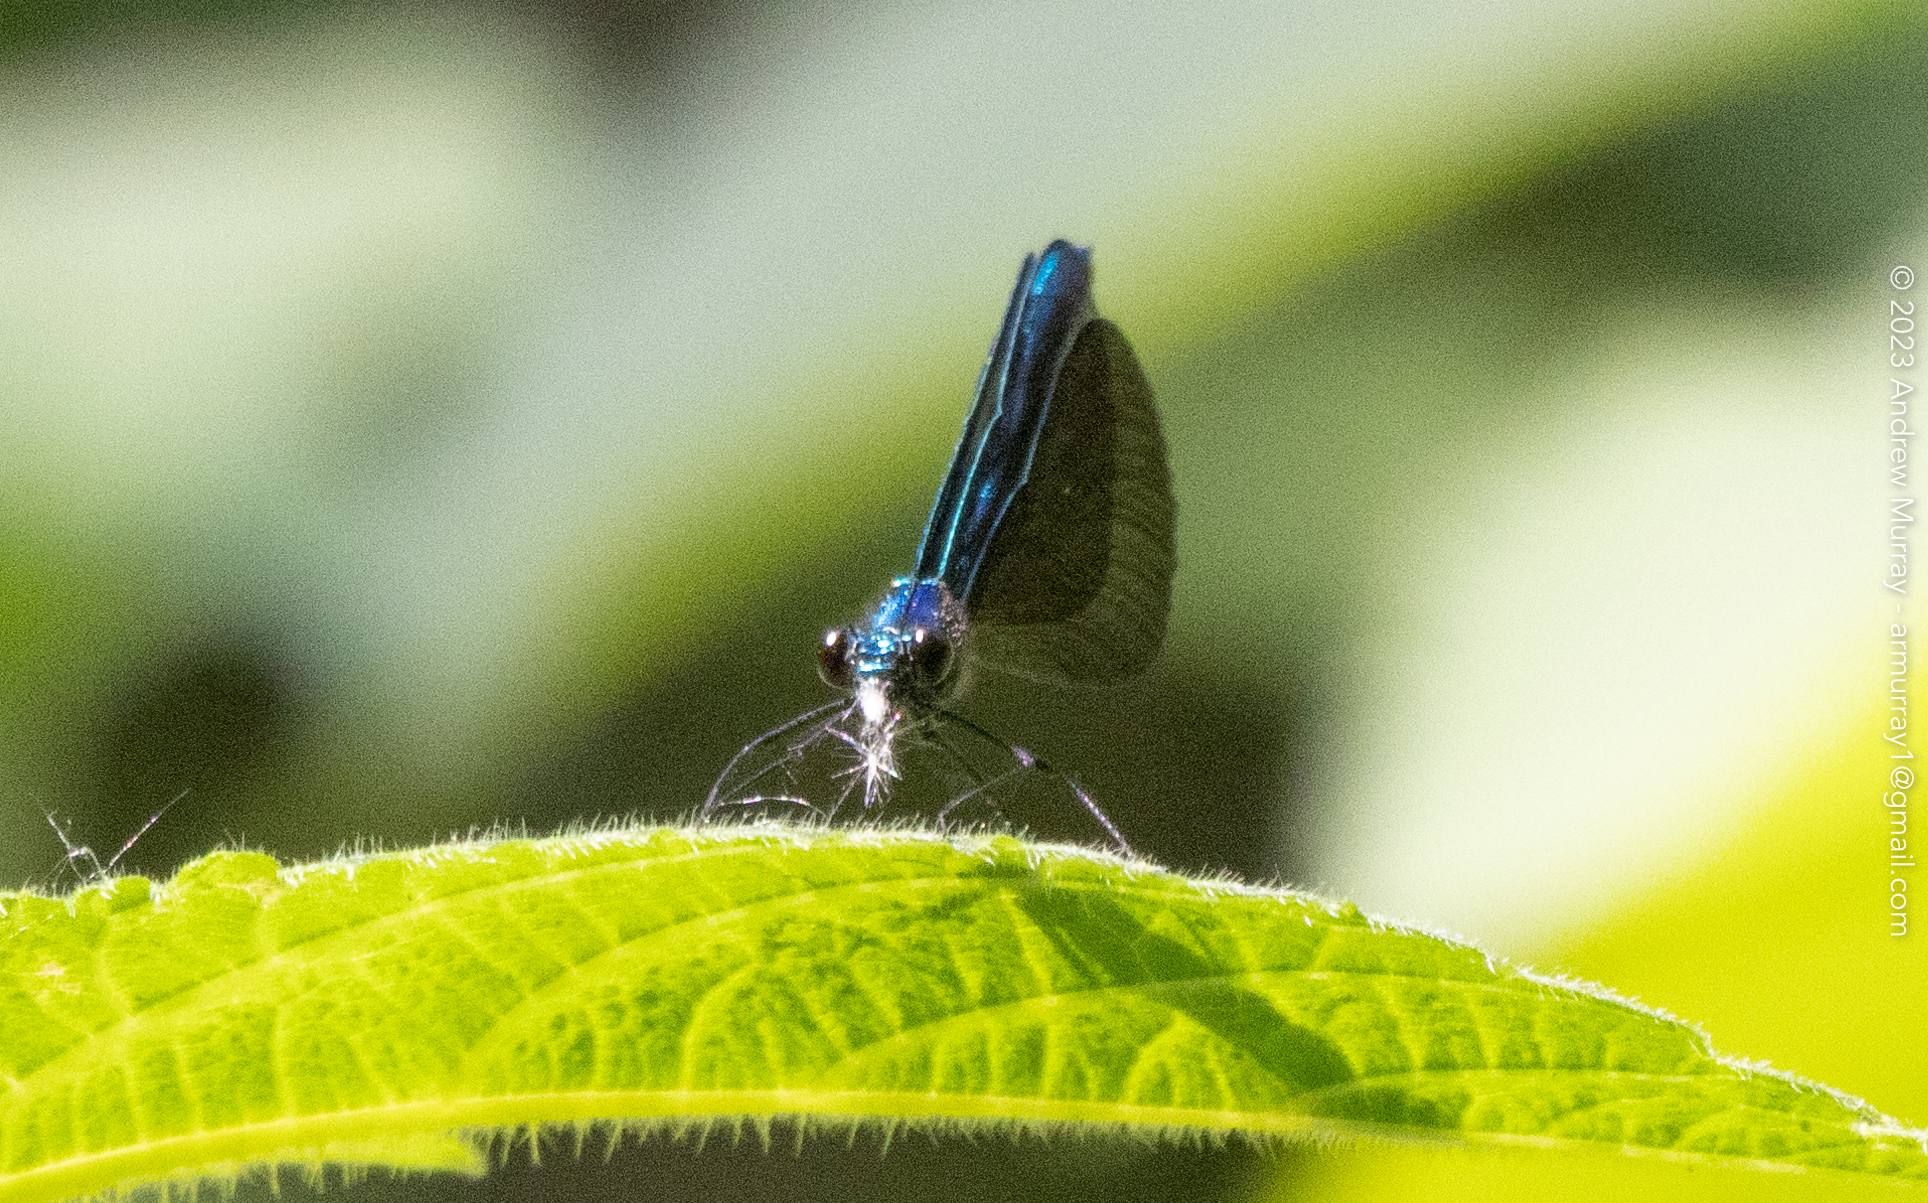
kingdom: Animalia
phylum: Arthropoda
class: Insecta
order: Odonata
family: Calopterygidae
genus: Calopteryx
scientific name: Calopteryx maculata
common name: Ebony jewelwing
